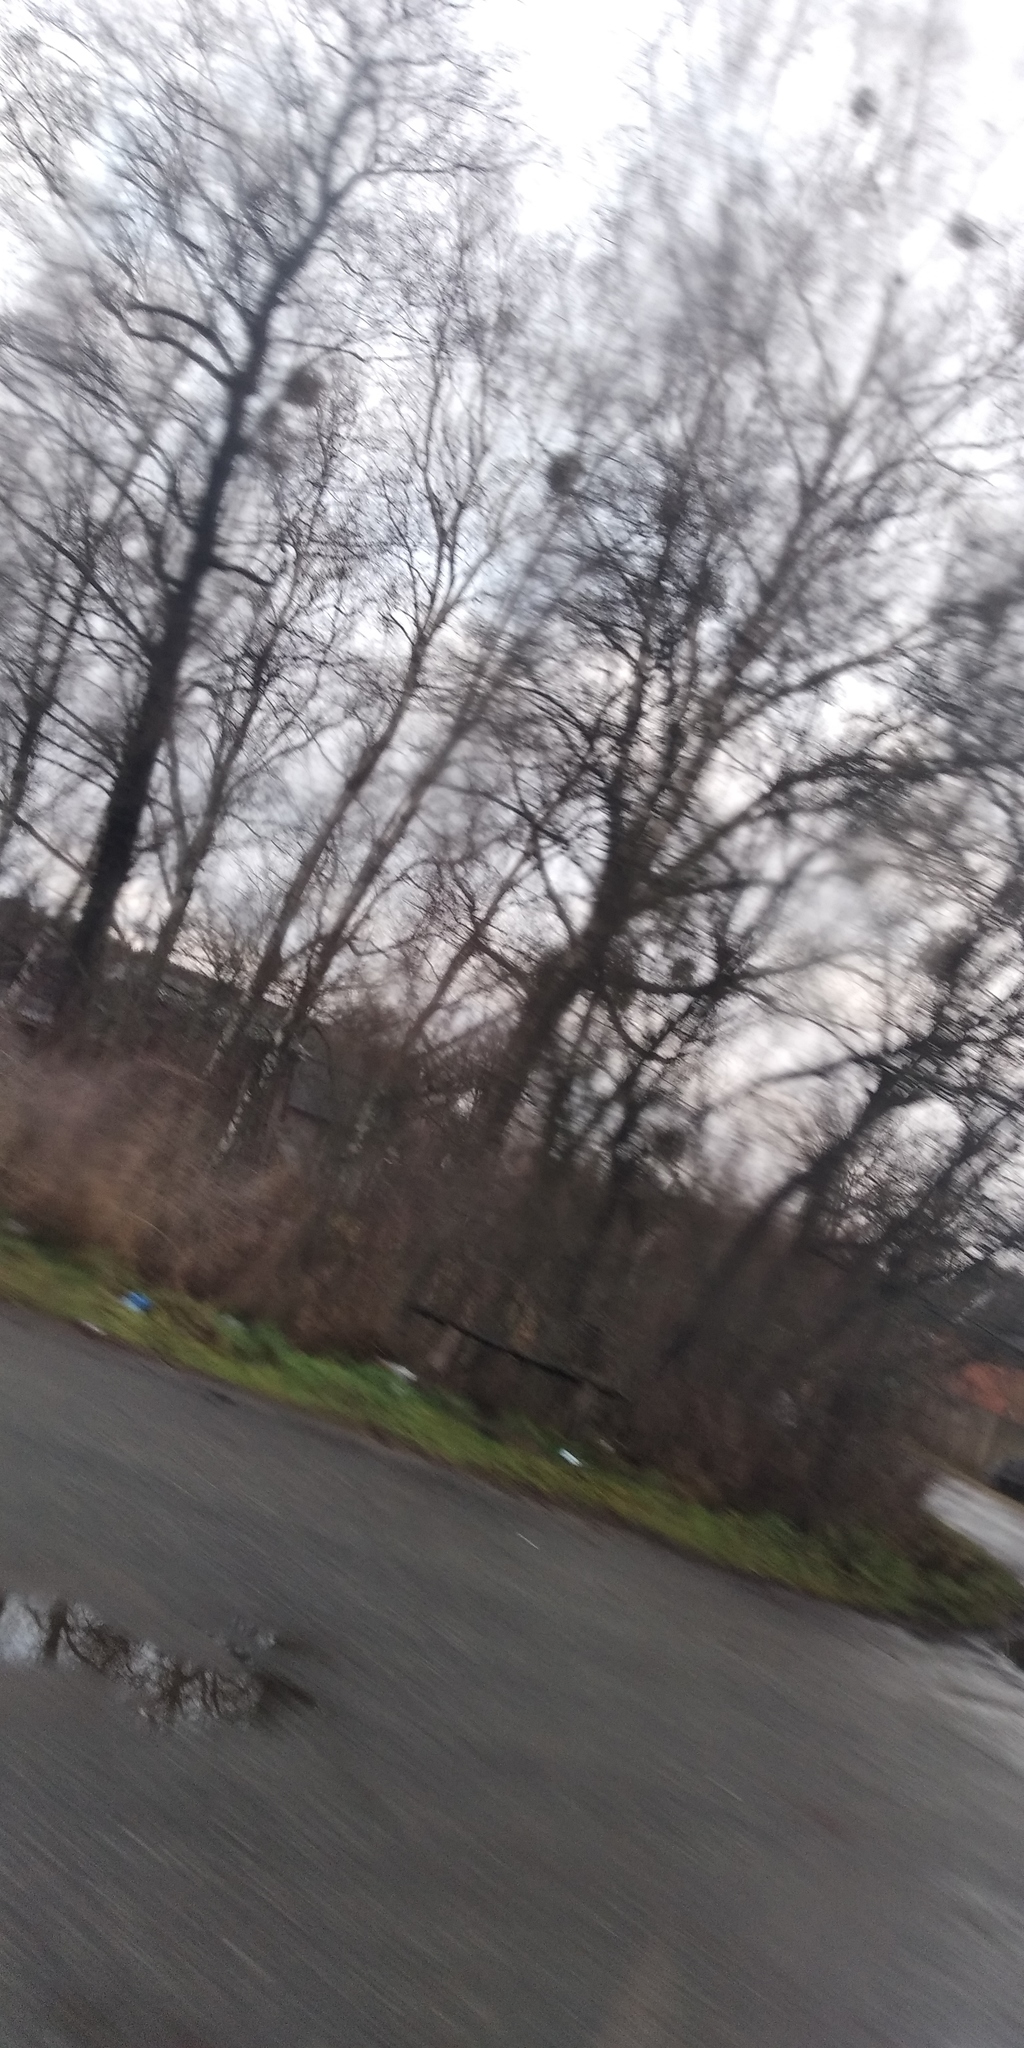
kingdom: Plantae
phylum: Tracheophyta
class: Magnoliopsida
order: Santalales
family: Viscaceae
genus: Viscum
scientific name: Viscum album
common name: Mistletoe
